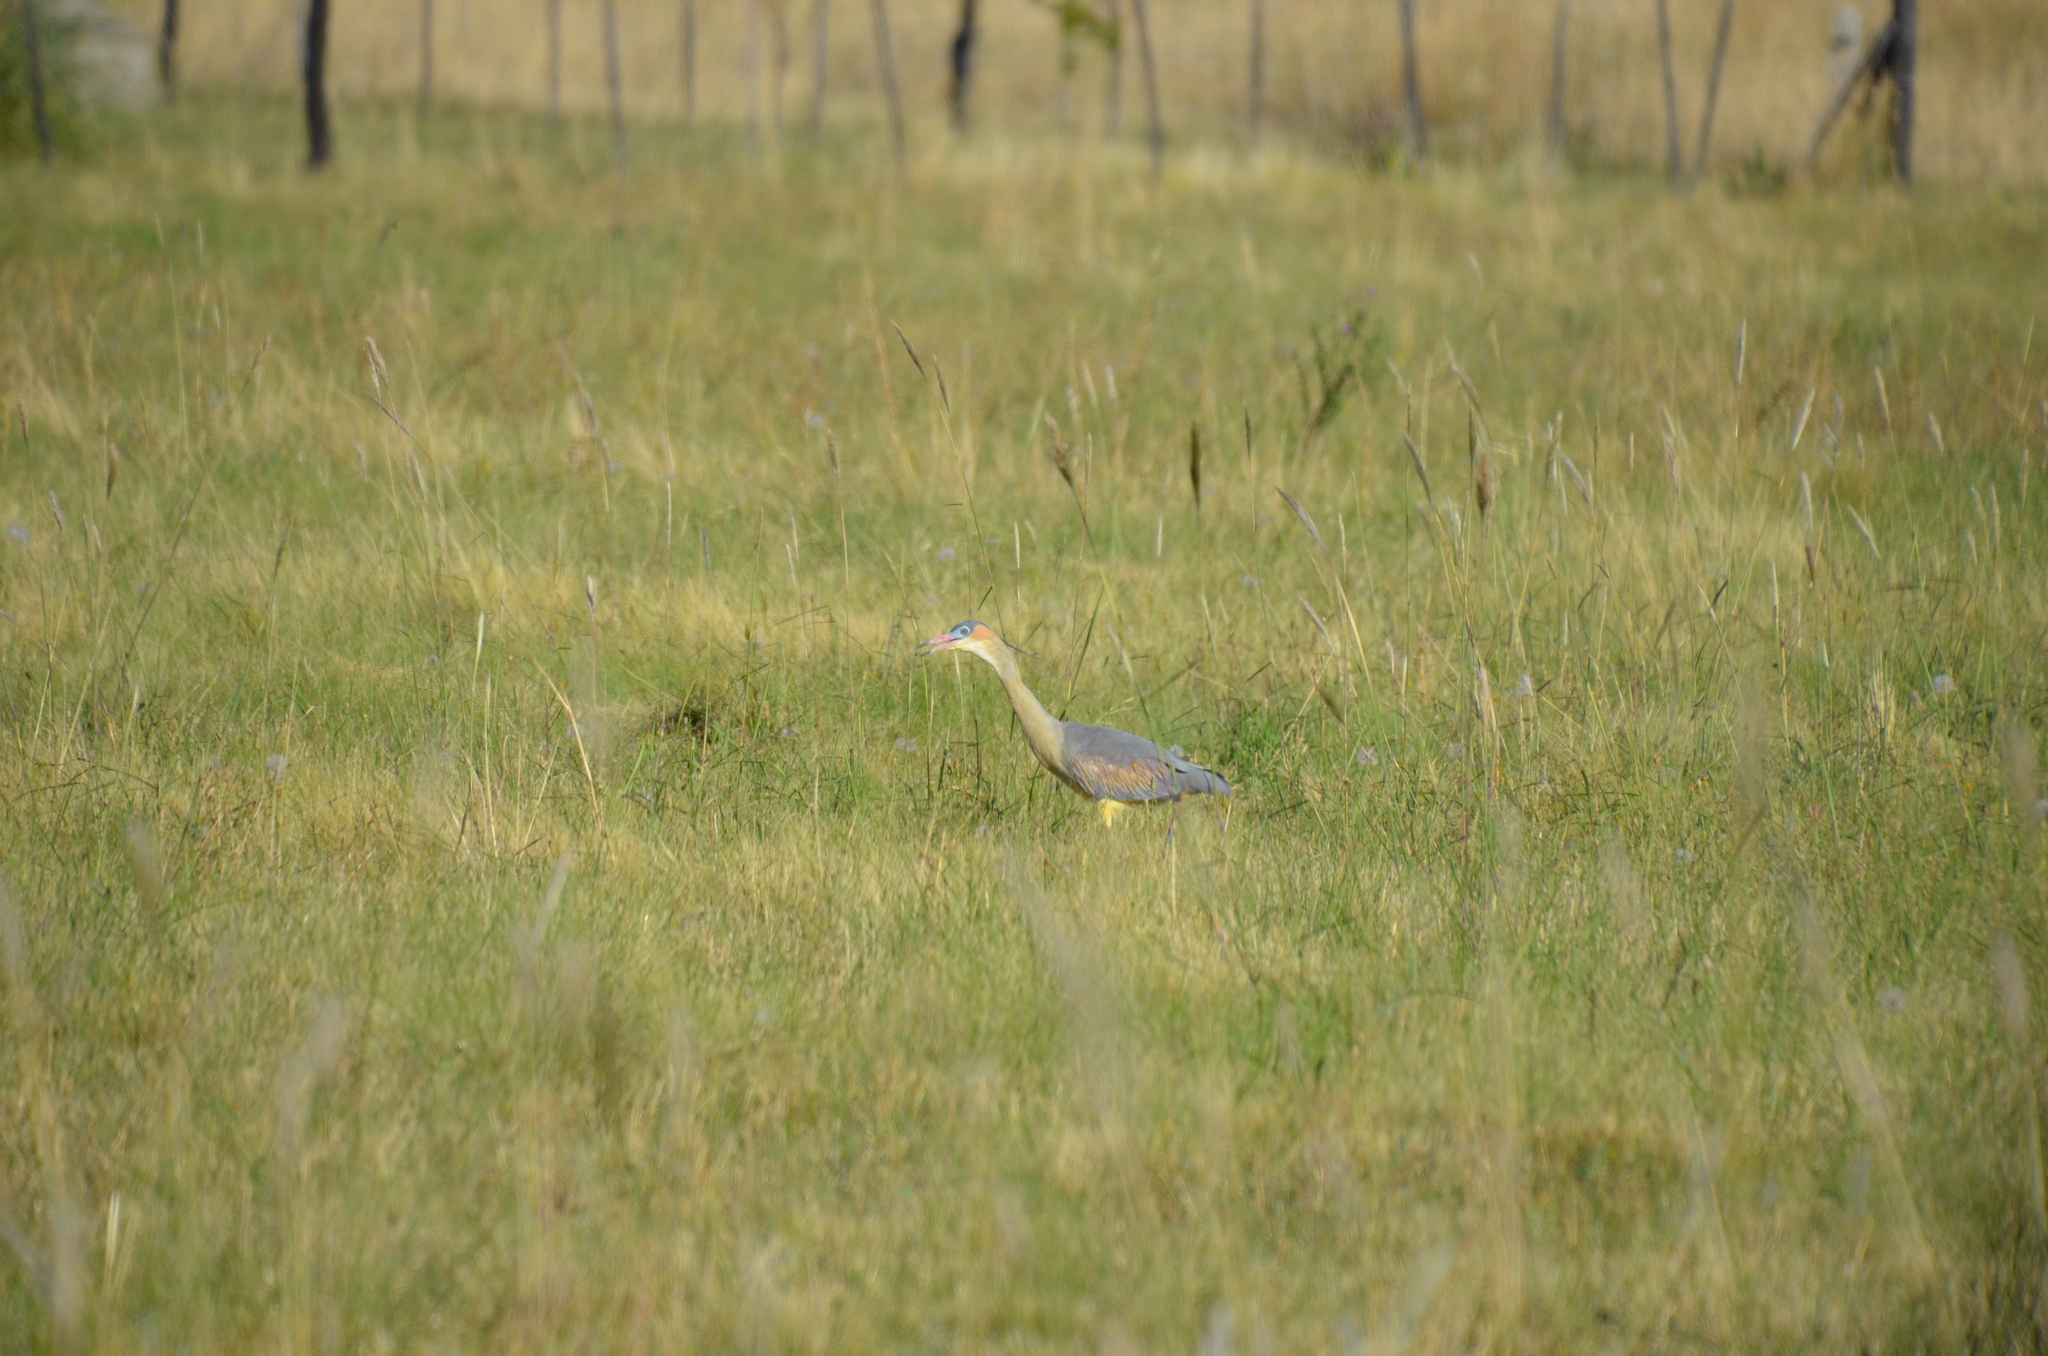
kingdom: Animalia
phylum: Chordata
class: Aves
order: Pelecaniformes
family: Ardeidae
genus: Syrigma
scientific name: Syrigma sibilatrix
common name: Whistling heron
